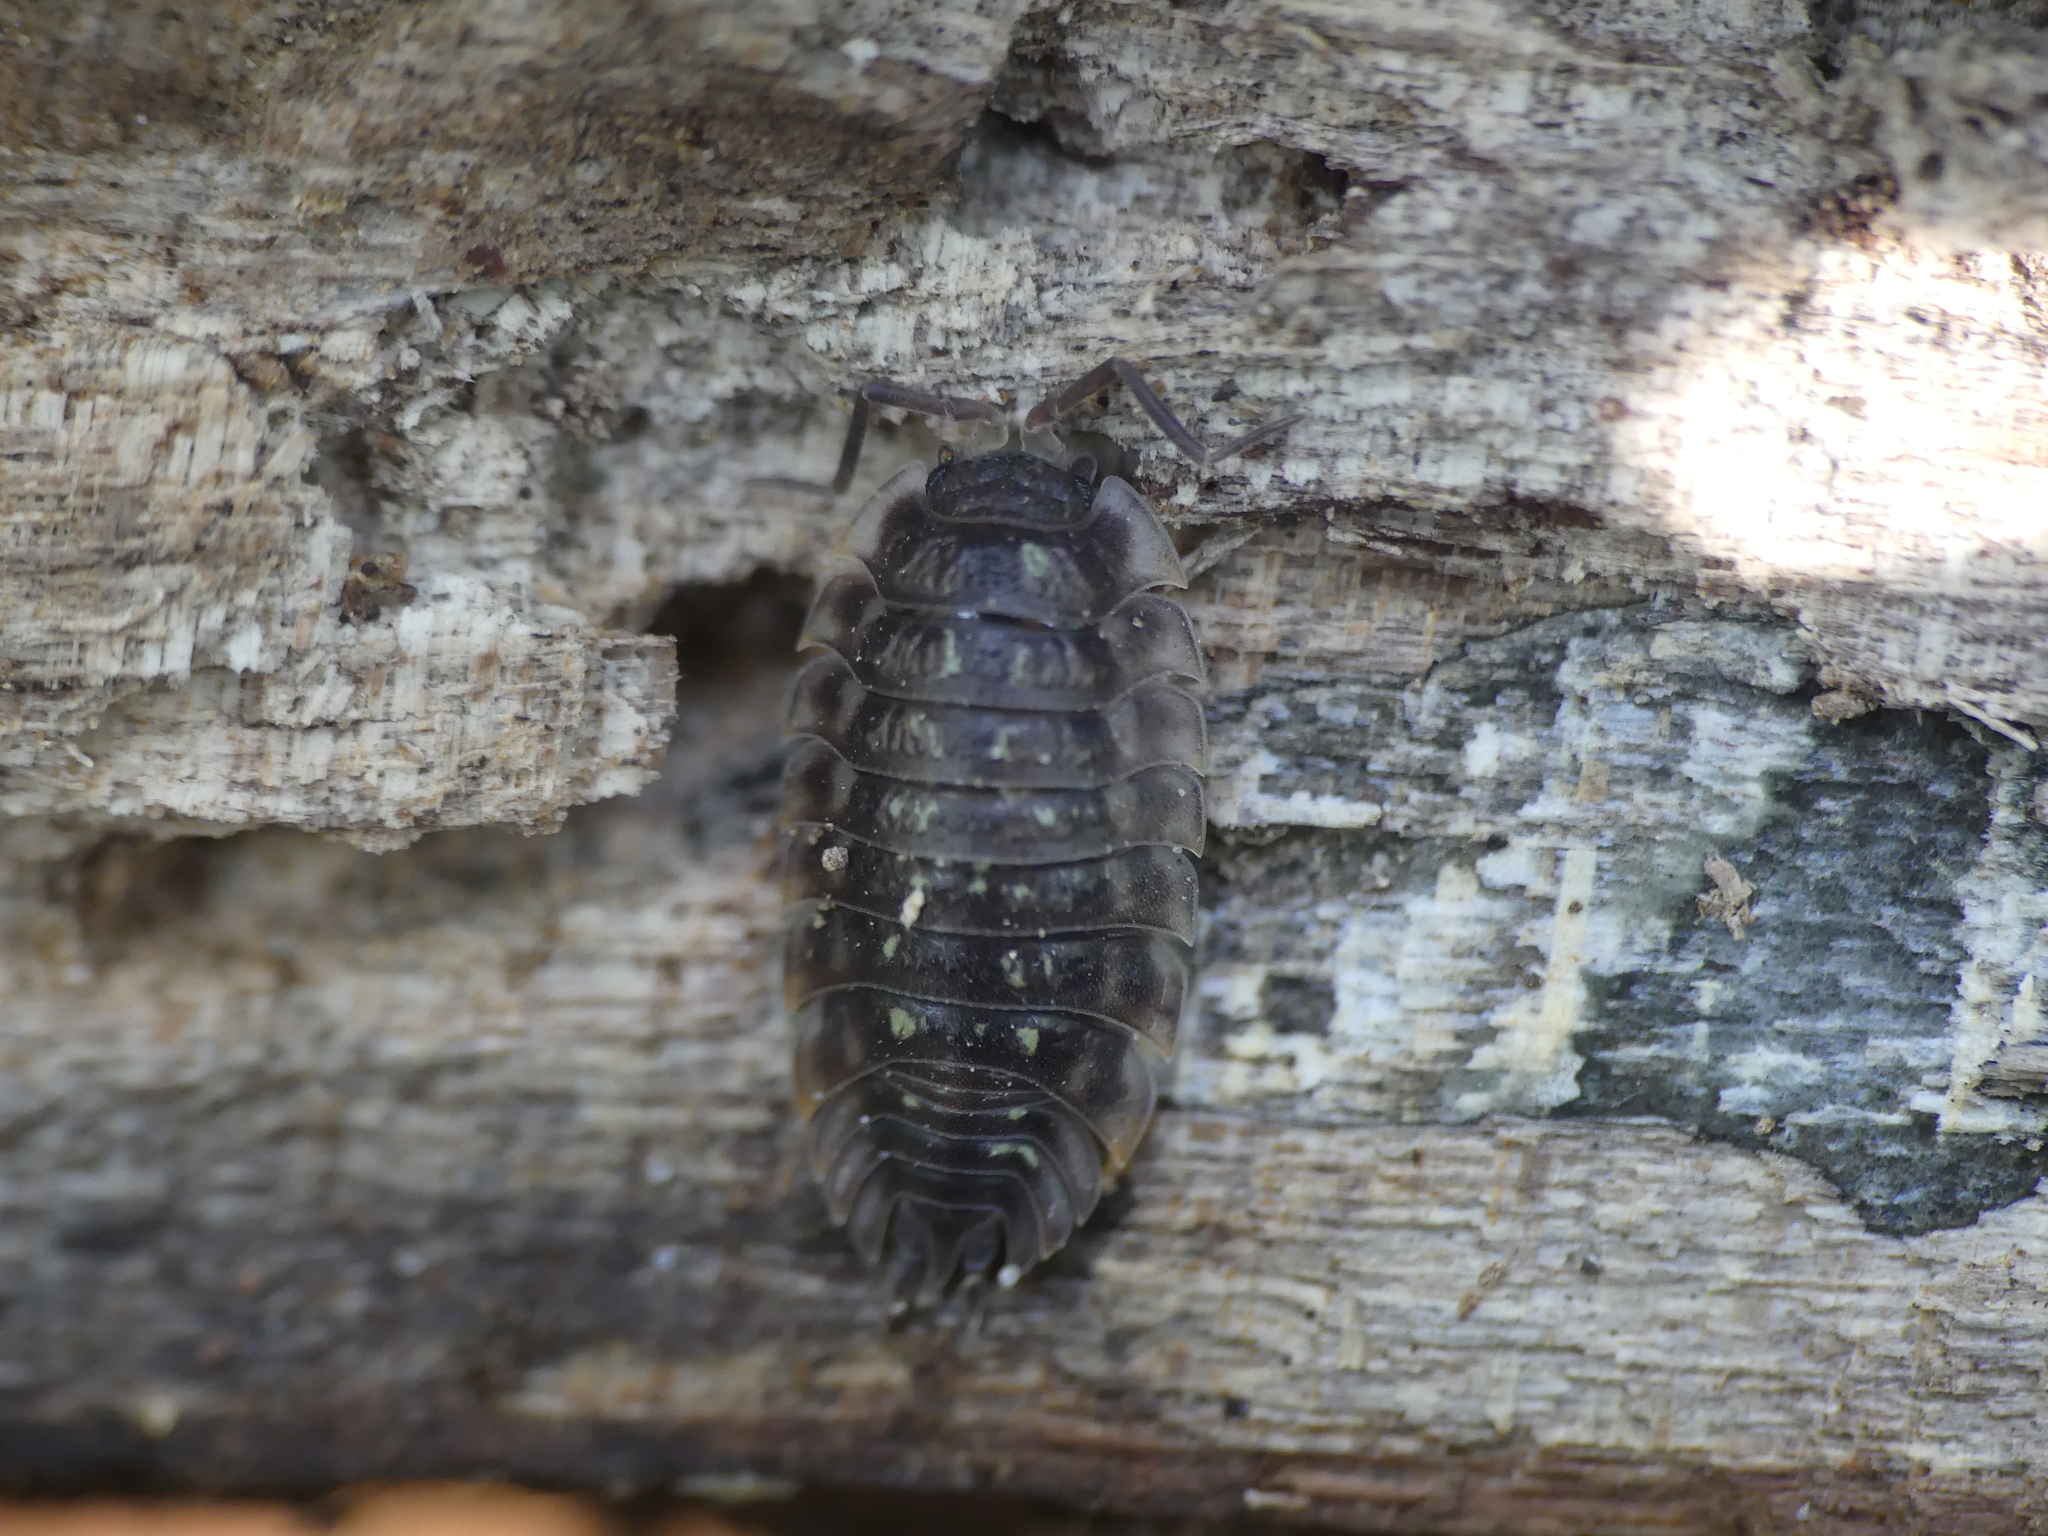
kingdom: Animalia
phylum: Arthropoda
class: Malacostraca
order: Isopoda
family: Oniscidae
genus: Oniscus
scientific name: Oniscus asellus
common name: Common shiny woodlouse
